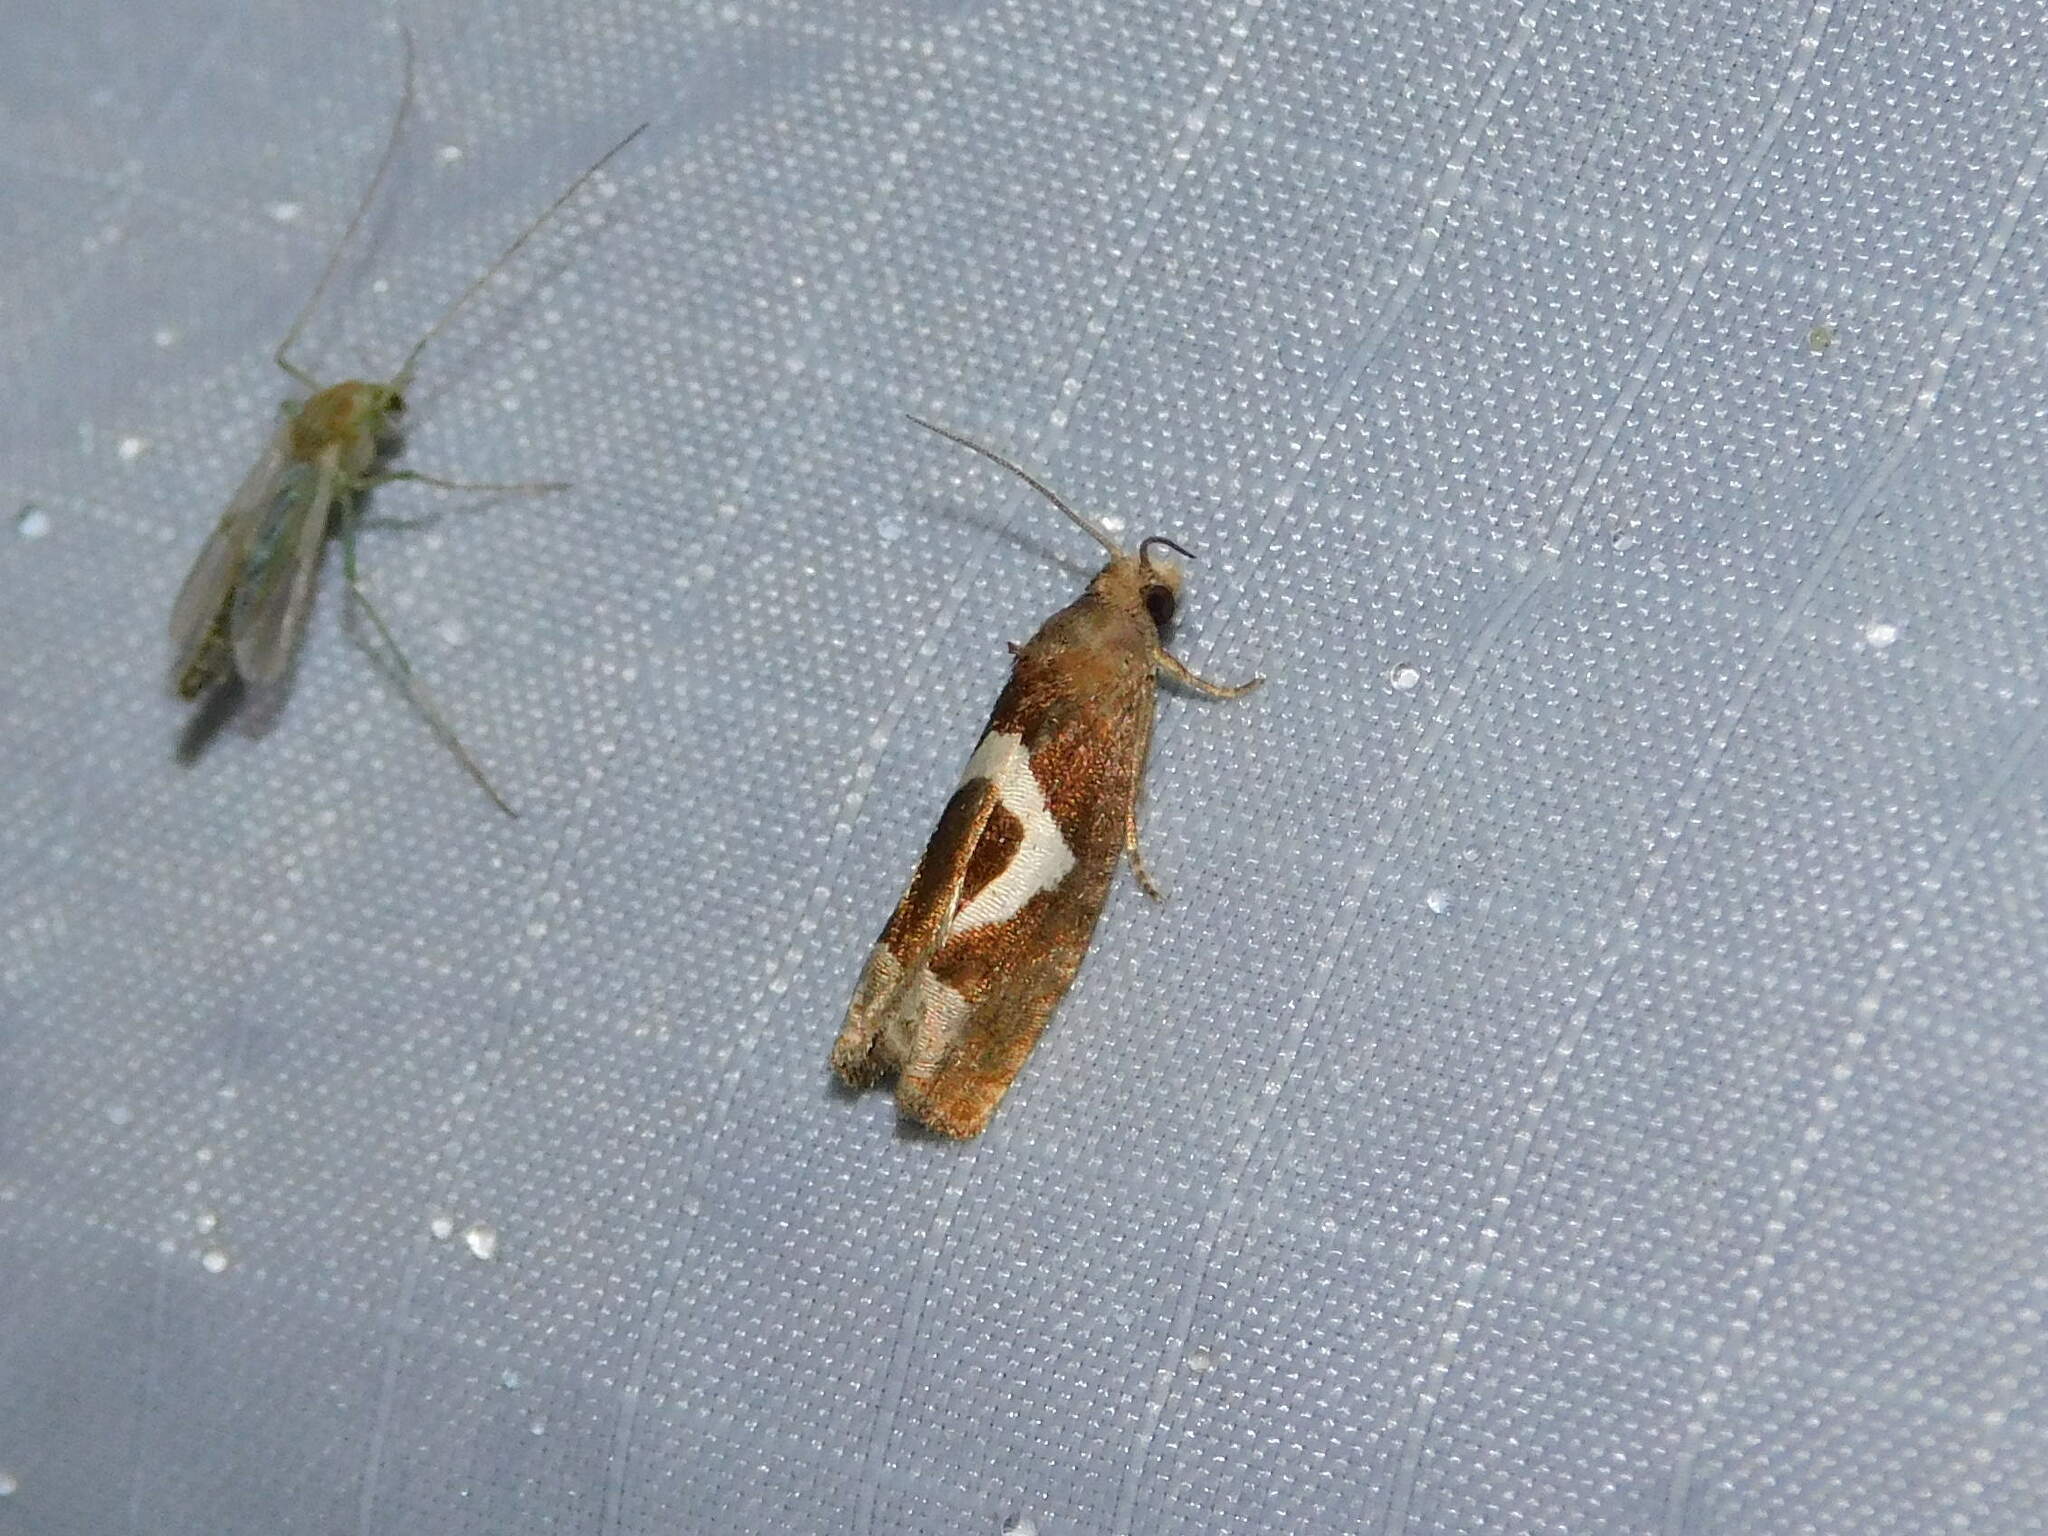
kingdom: Animalia
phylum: Arthropoda
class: Insecta
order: Lepidoptera
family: Tortricidae
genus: Epiblema
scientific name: Epiblema foenella
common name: White-foot bell
